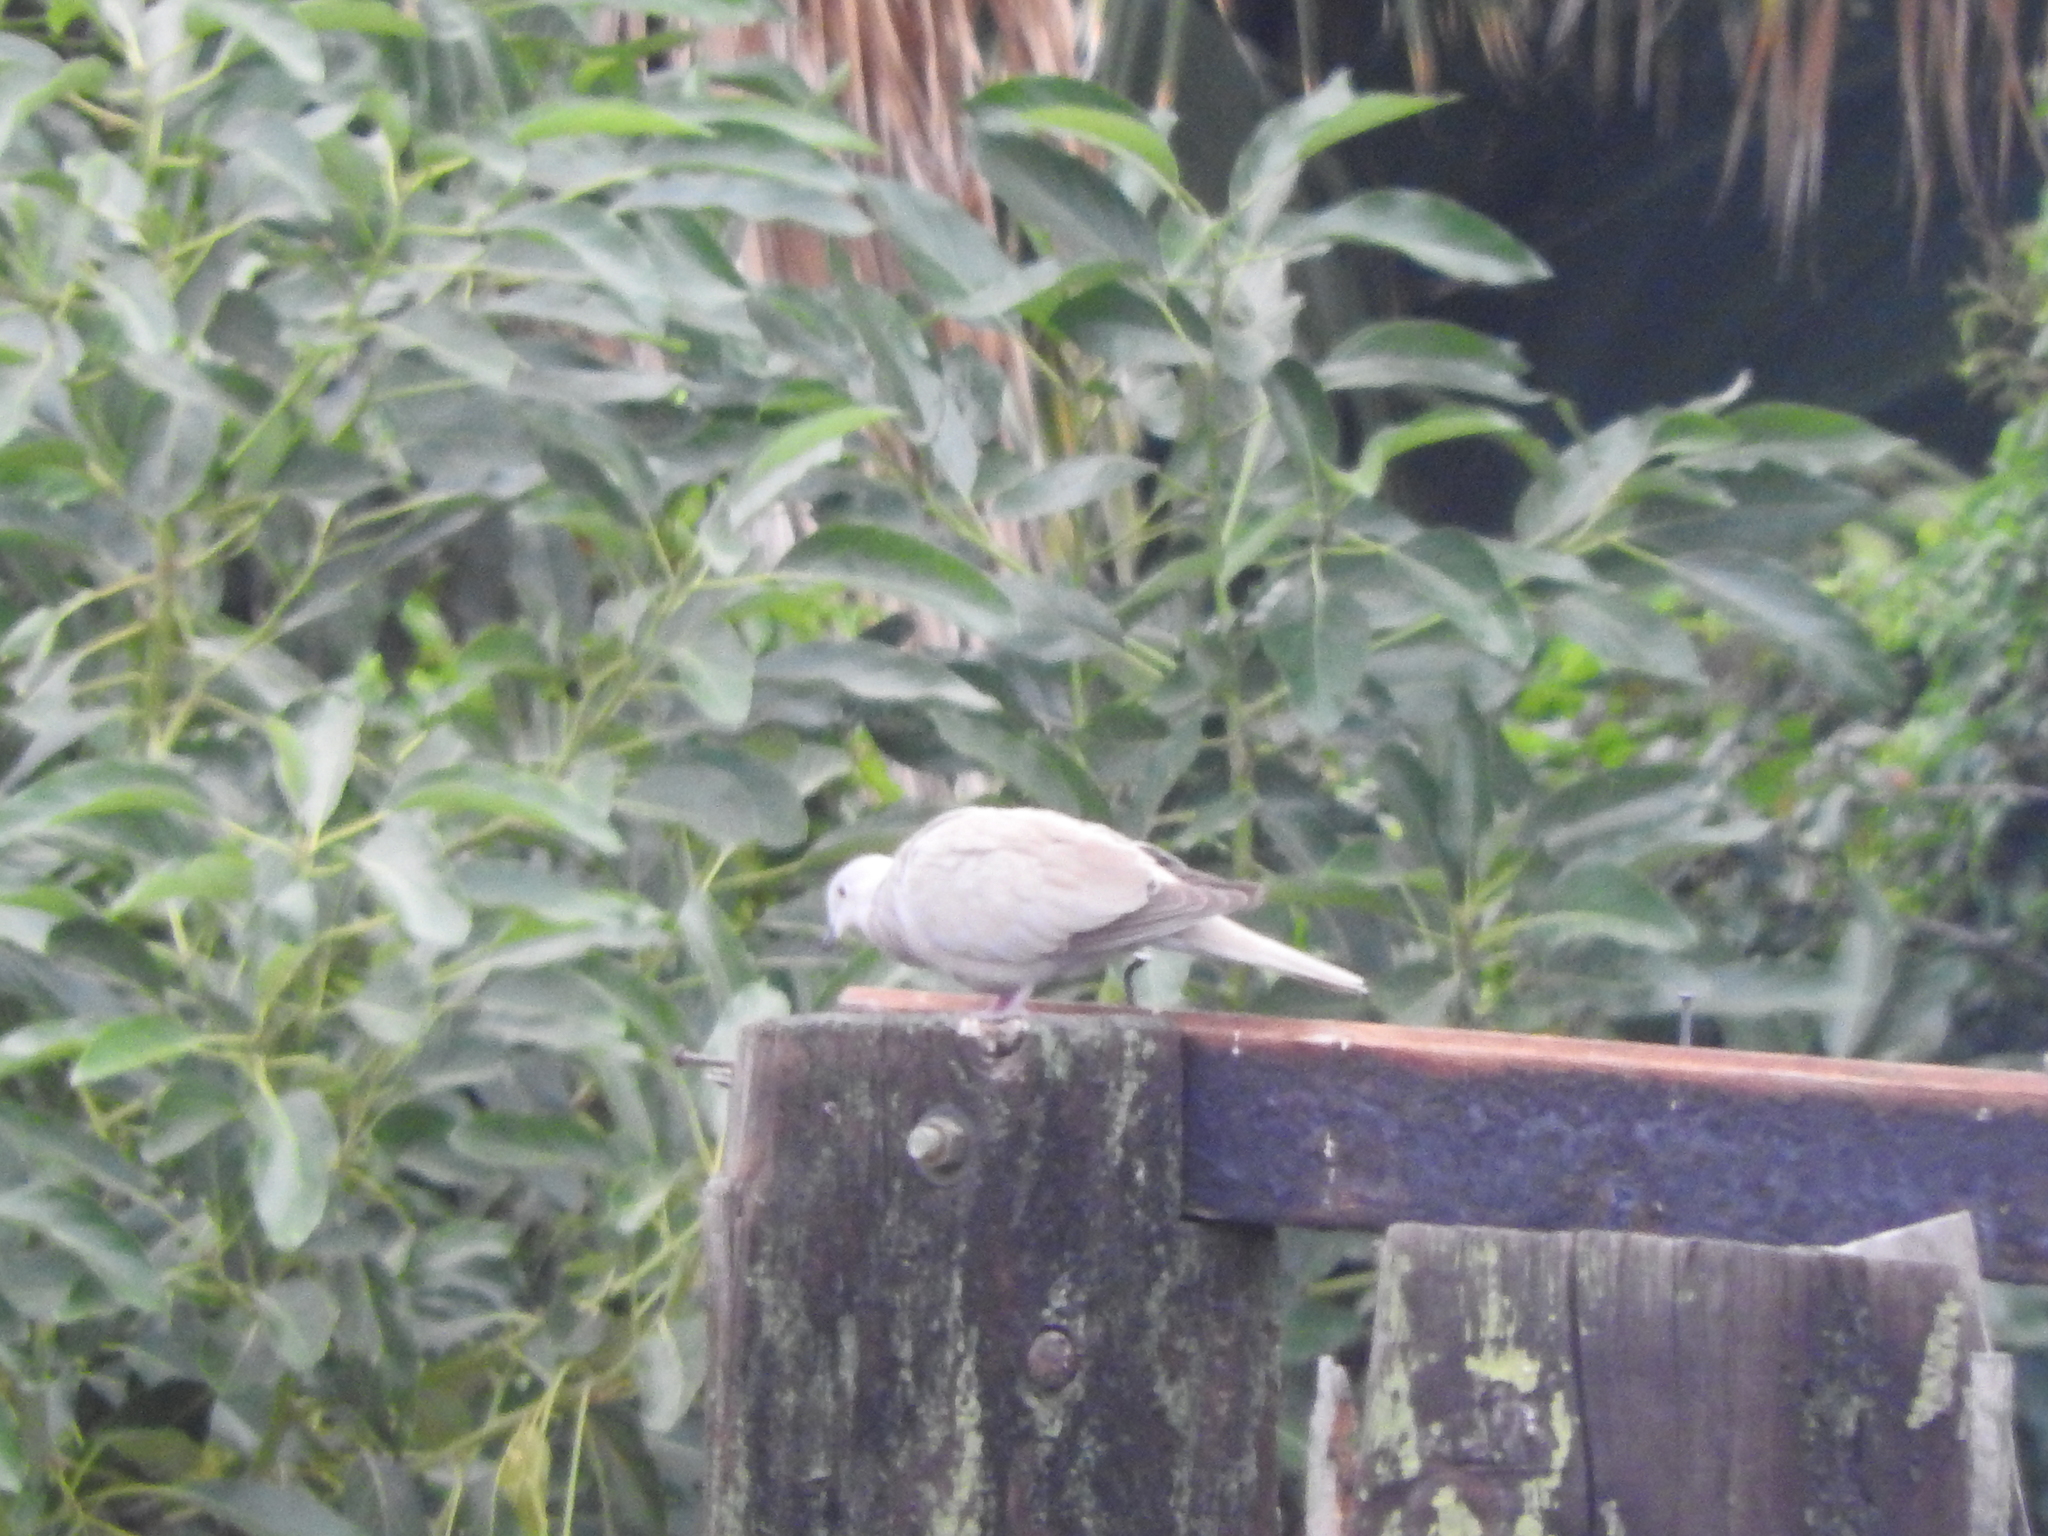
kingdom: Animalia
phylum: Chordata
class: Aves
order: Columbiformes
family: Columbidae
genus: Streptopelia
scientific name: Streptopelia decaocto
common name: Eurasian collared dove
